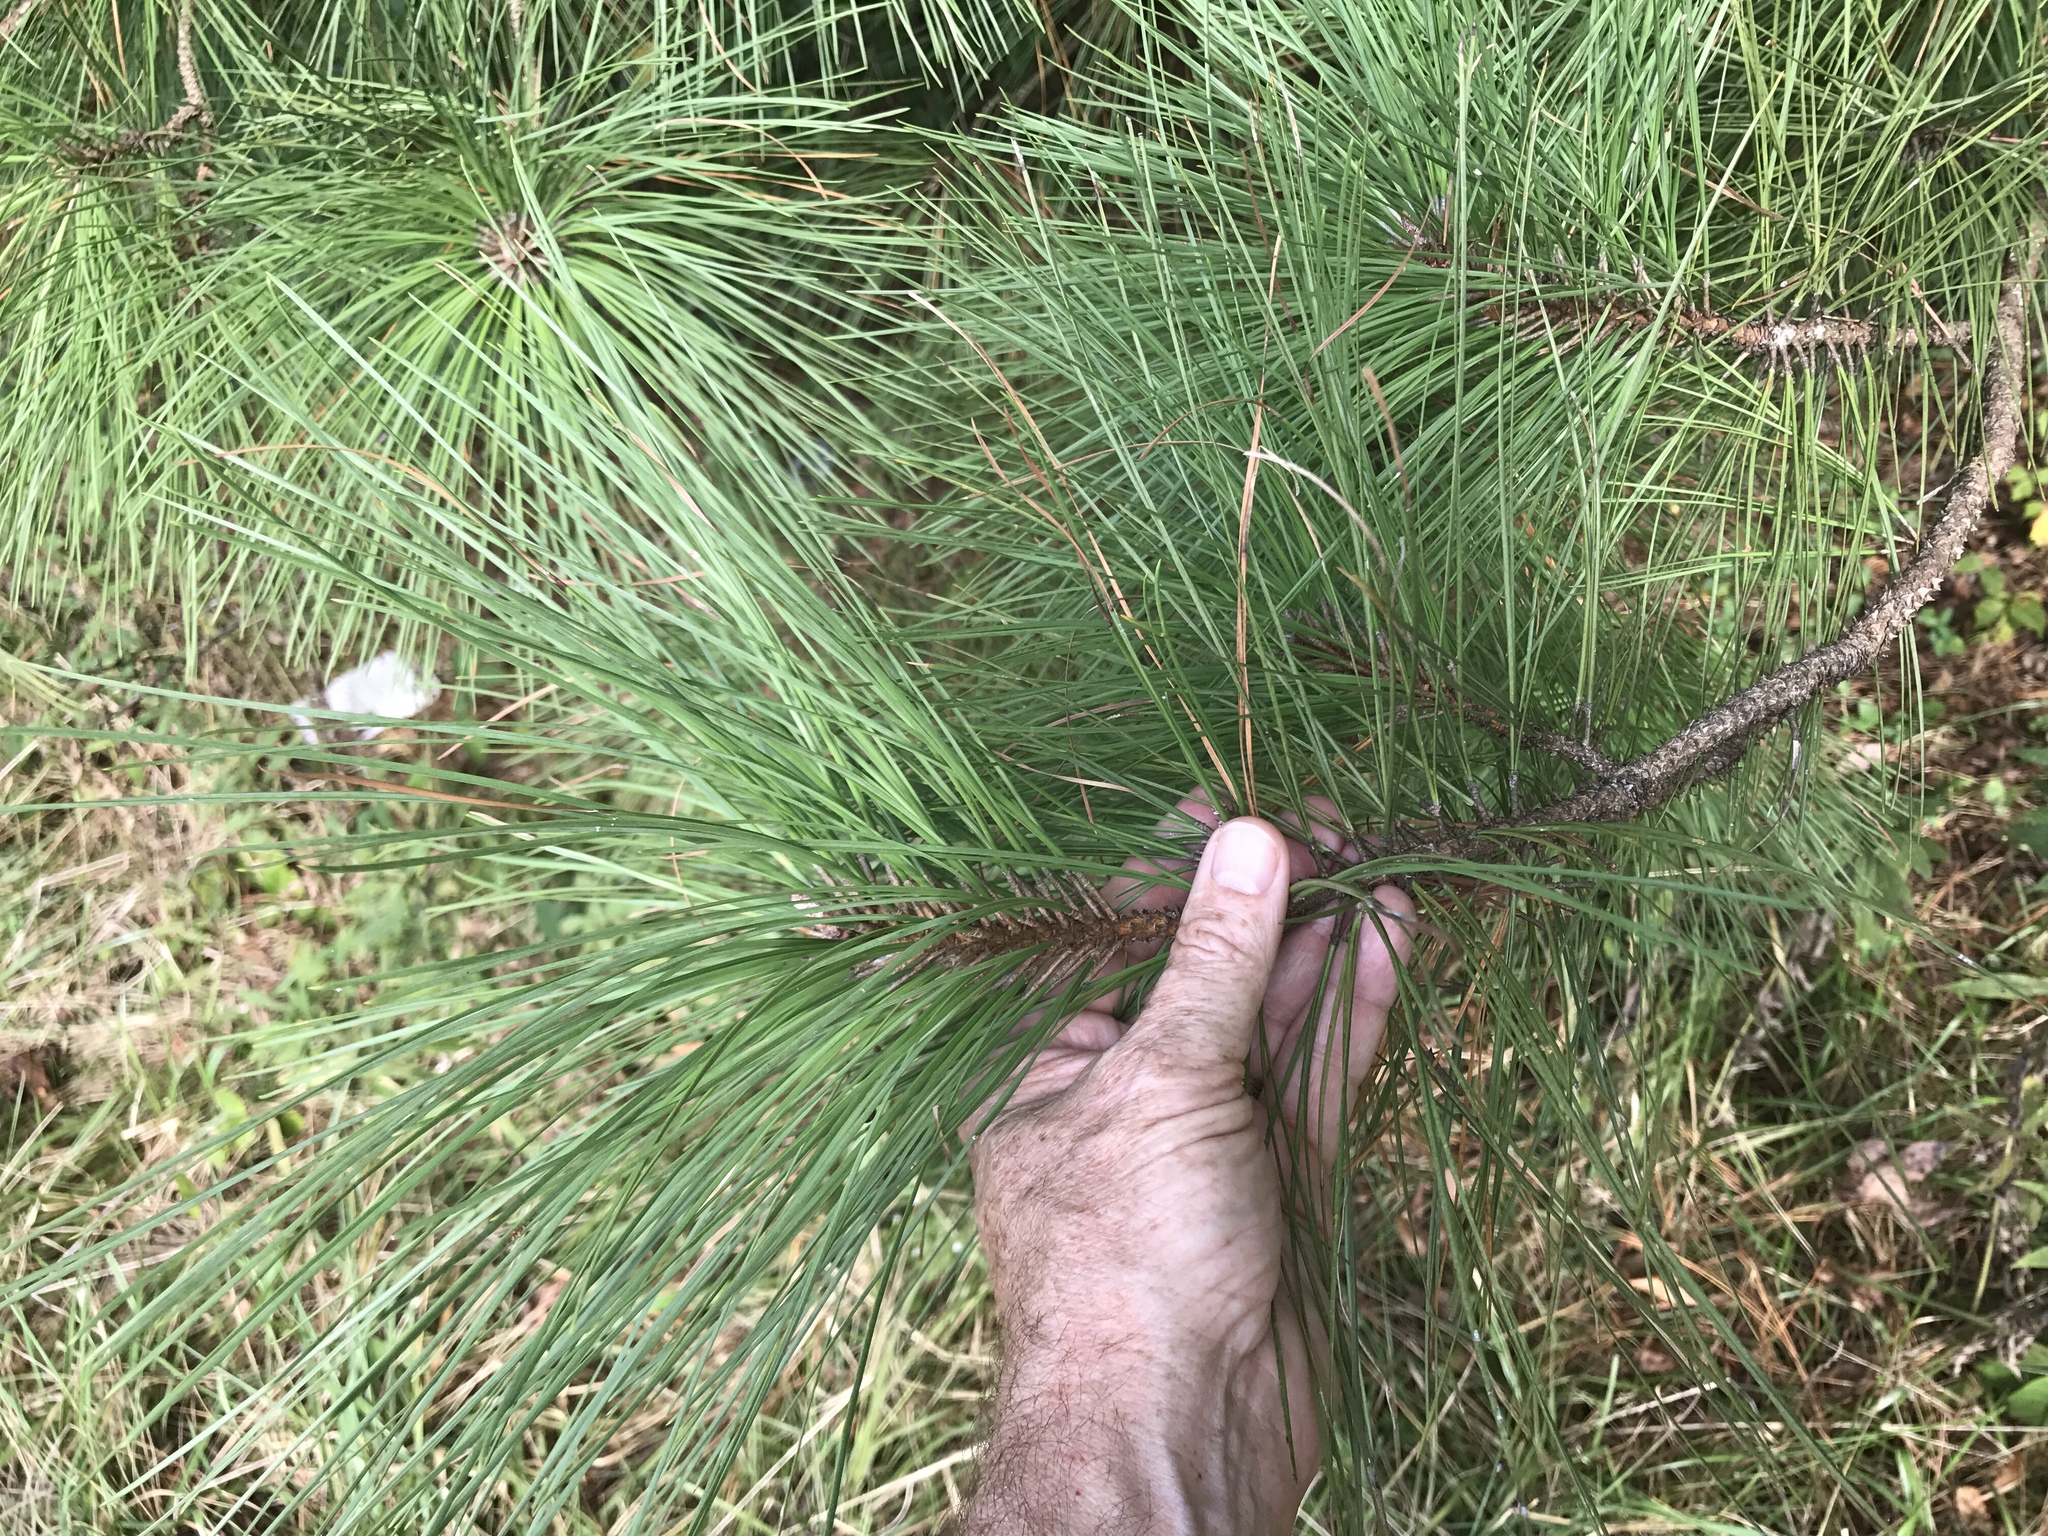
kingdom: Plantae
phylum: Tracheophyta
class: Pinopsida
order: Pinales
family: Pinaceae
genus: Pinus
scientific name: Pinus taeda
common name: Loblolly pine
